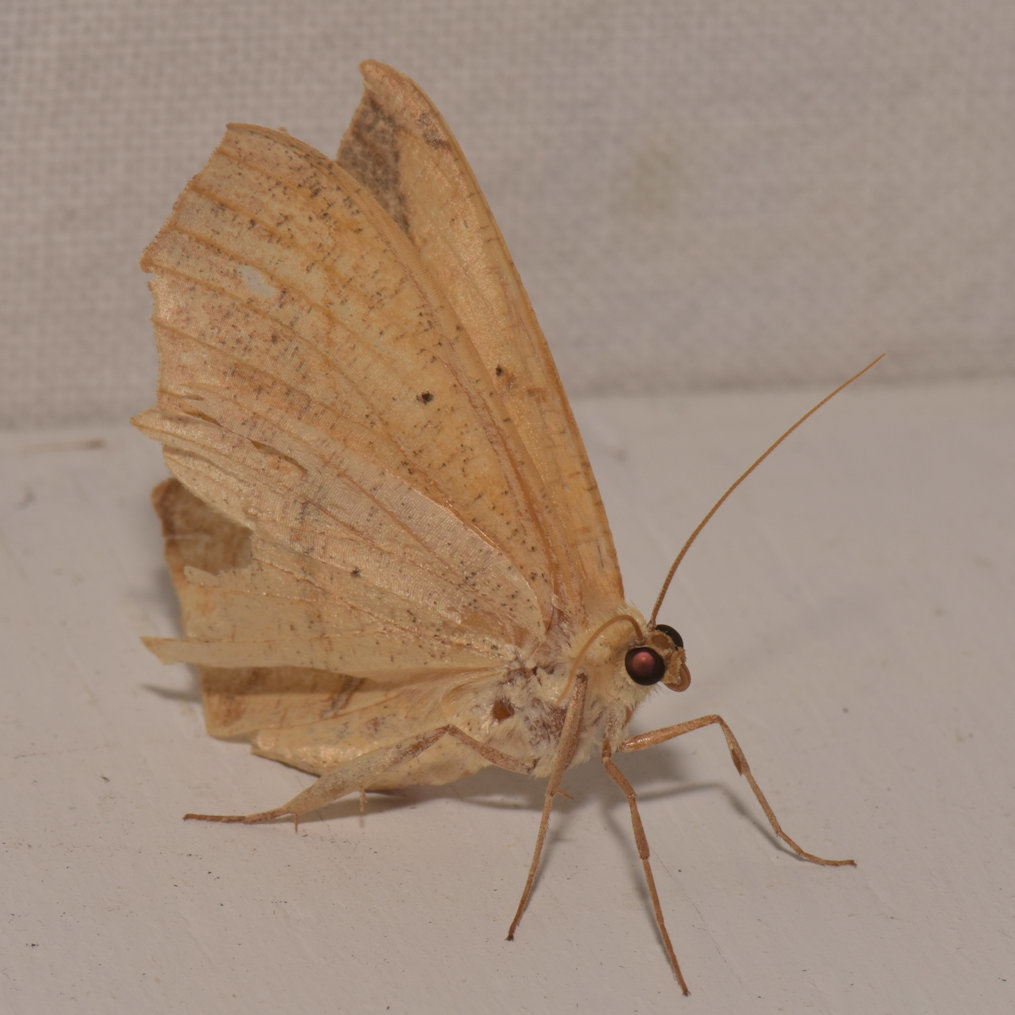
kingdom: Animalia
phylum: Arthropoda
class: Insecta
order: Lepidoptera
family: Geometridae
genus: Prochoerodes
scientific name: Prochoerodes lineola
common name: Large maple spanworm
